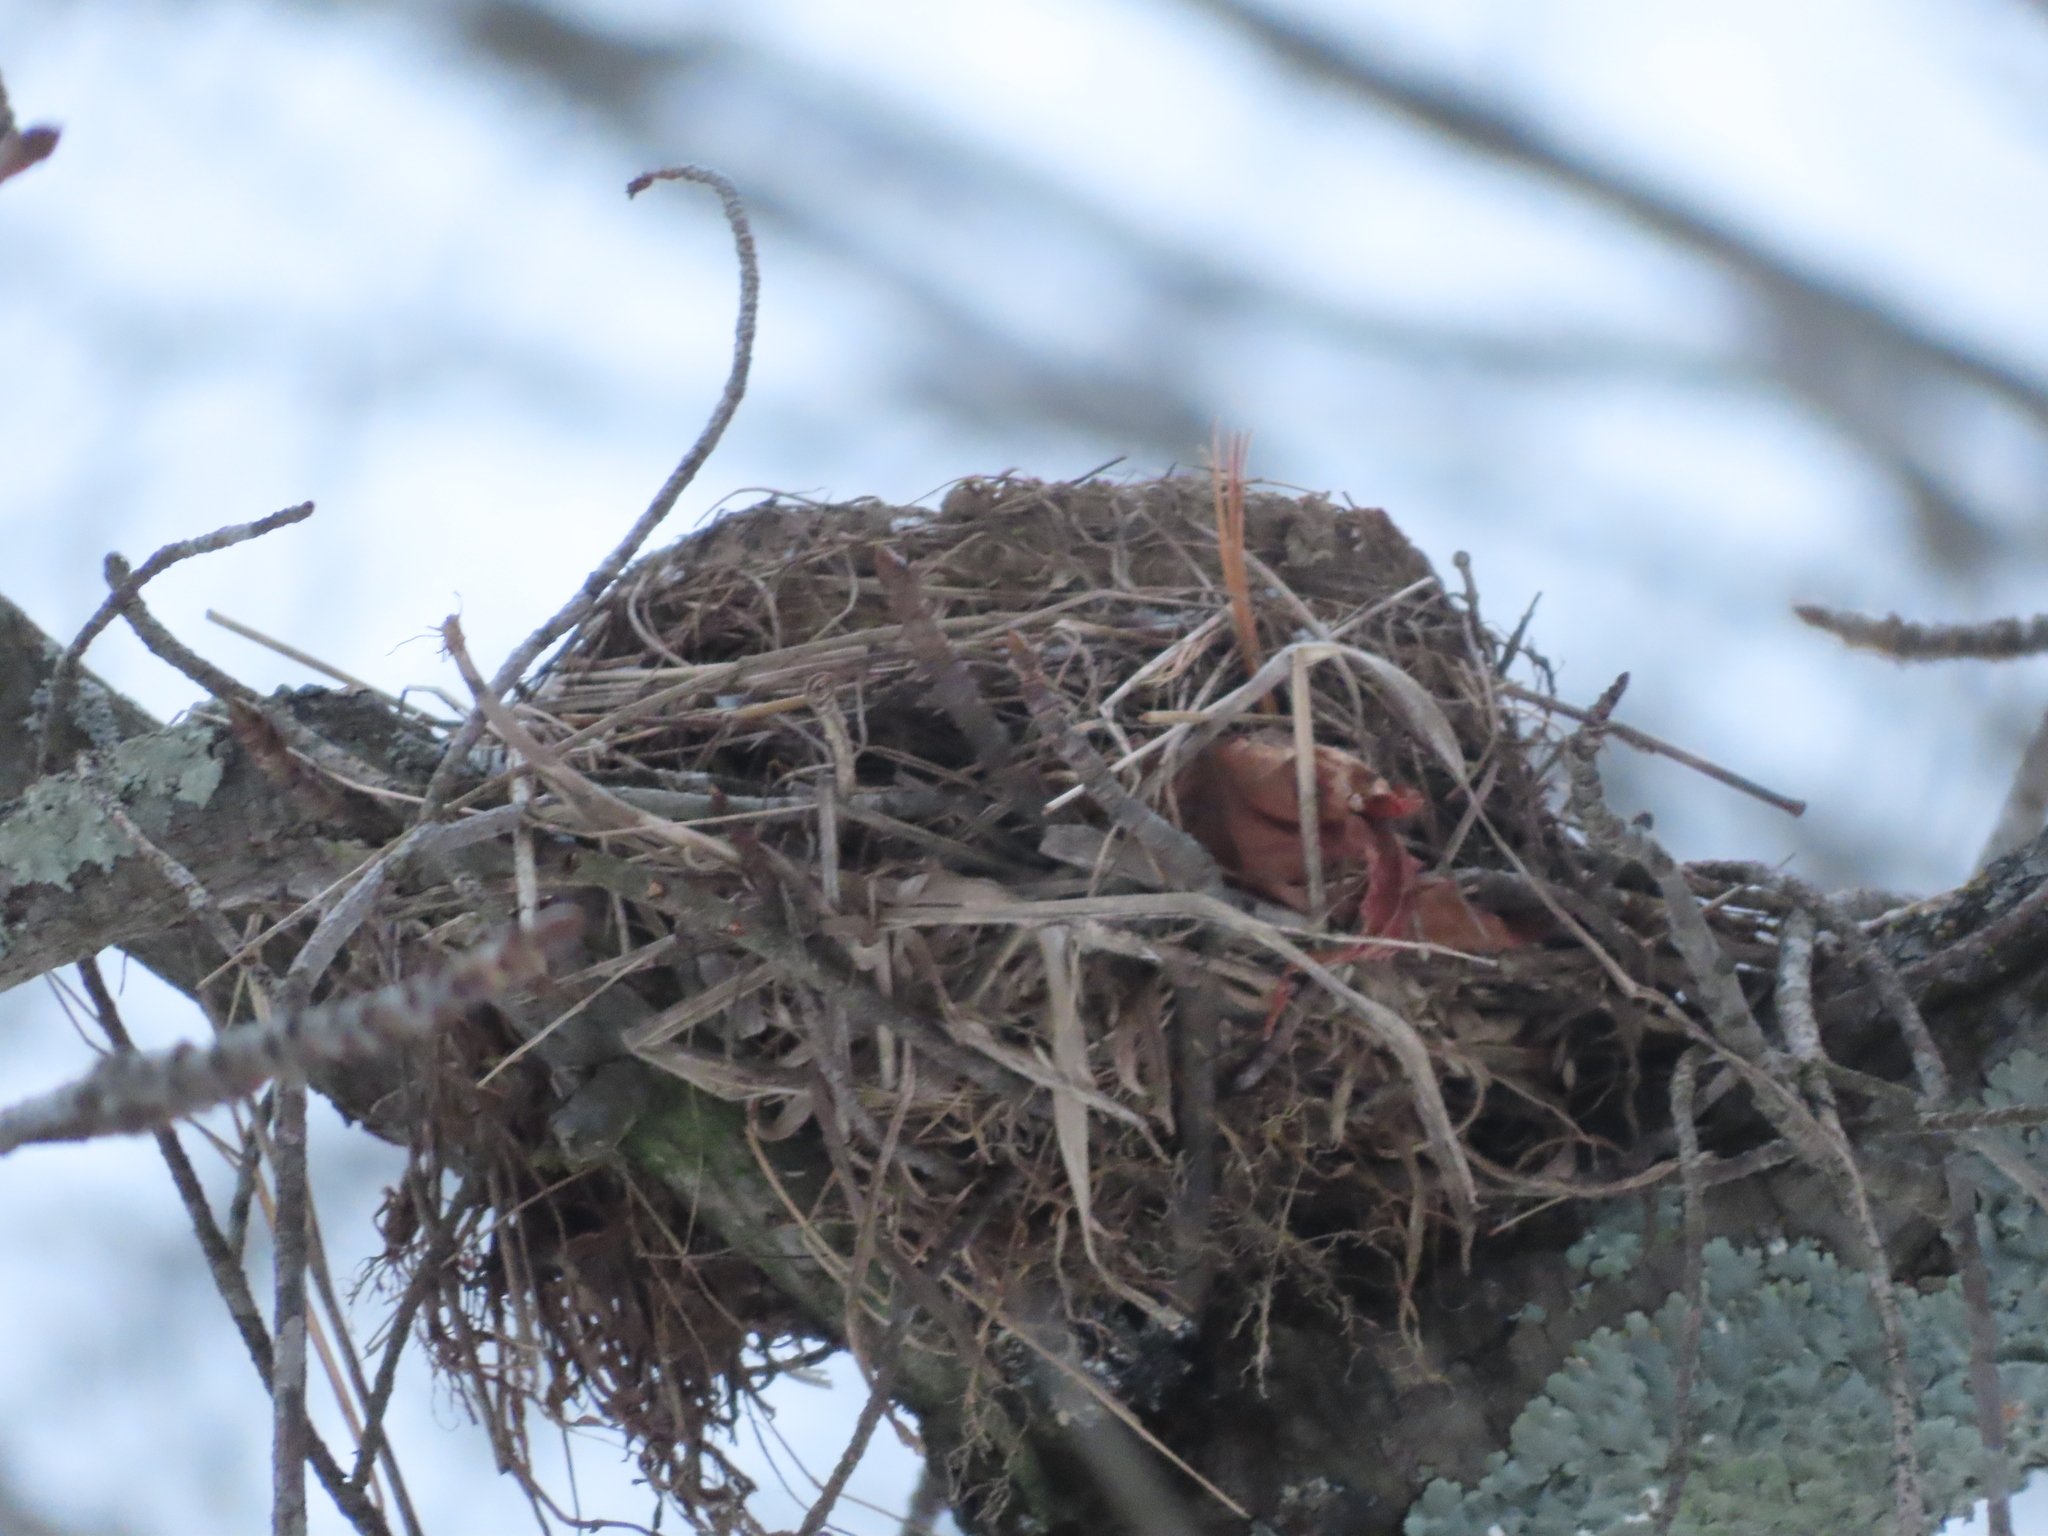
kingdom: Animalia
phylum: Chordata
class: Aves
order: Passeriformes
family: Turdidae
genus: Turdus
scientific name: Turdus migratorius
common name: American robin
